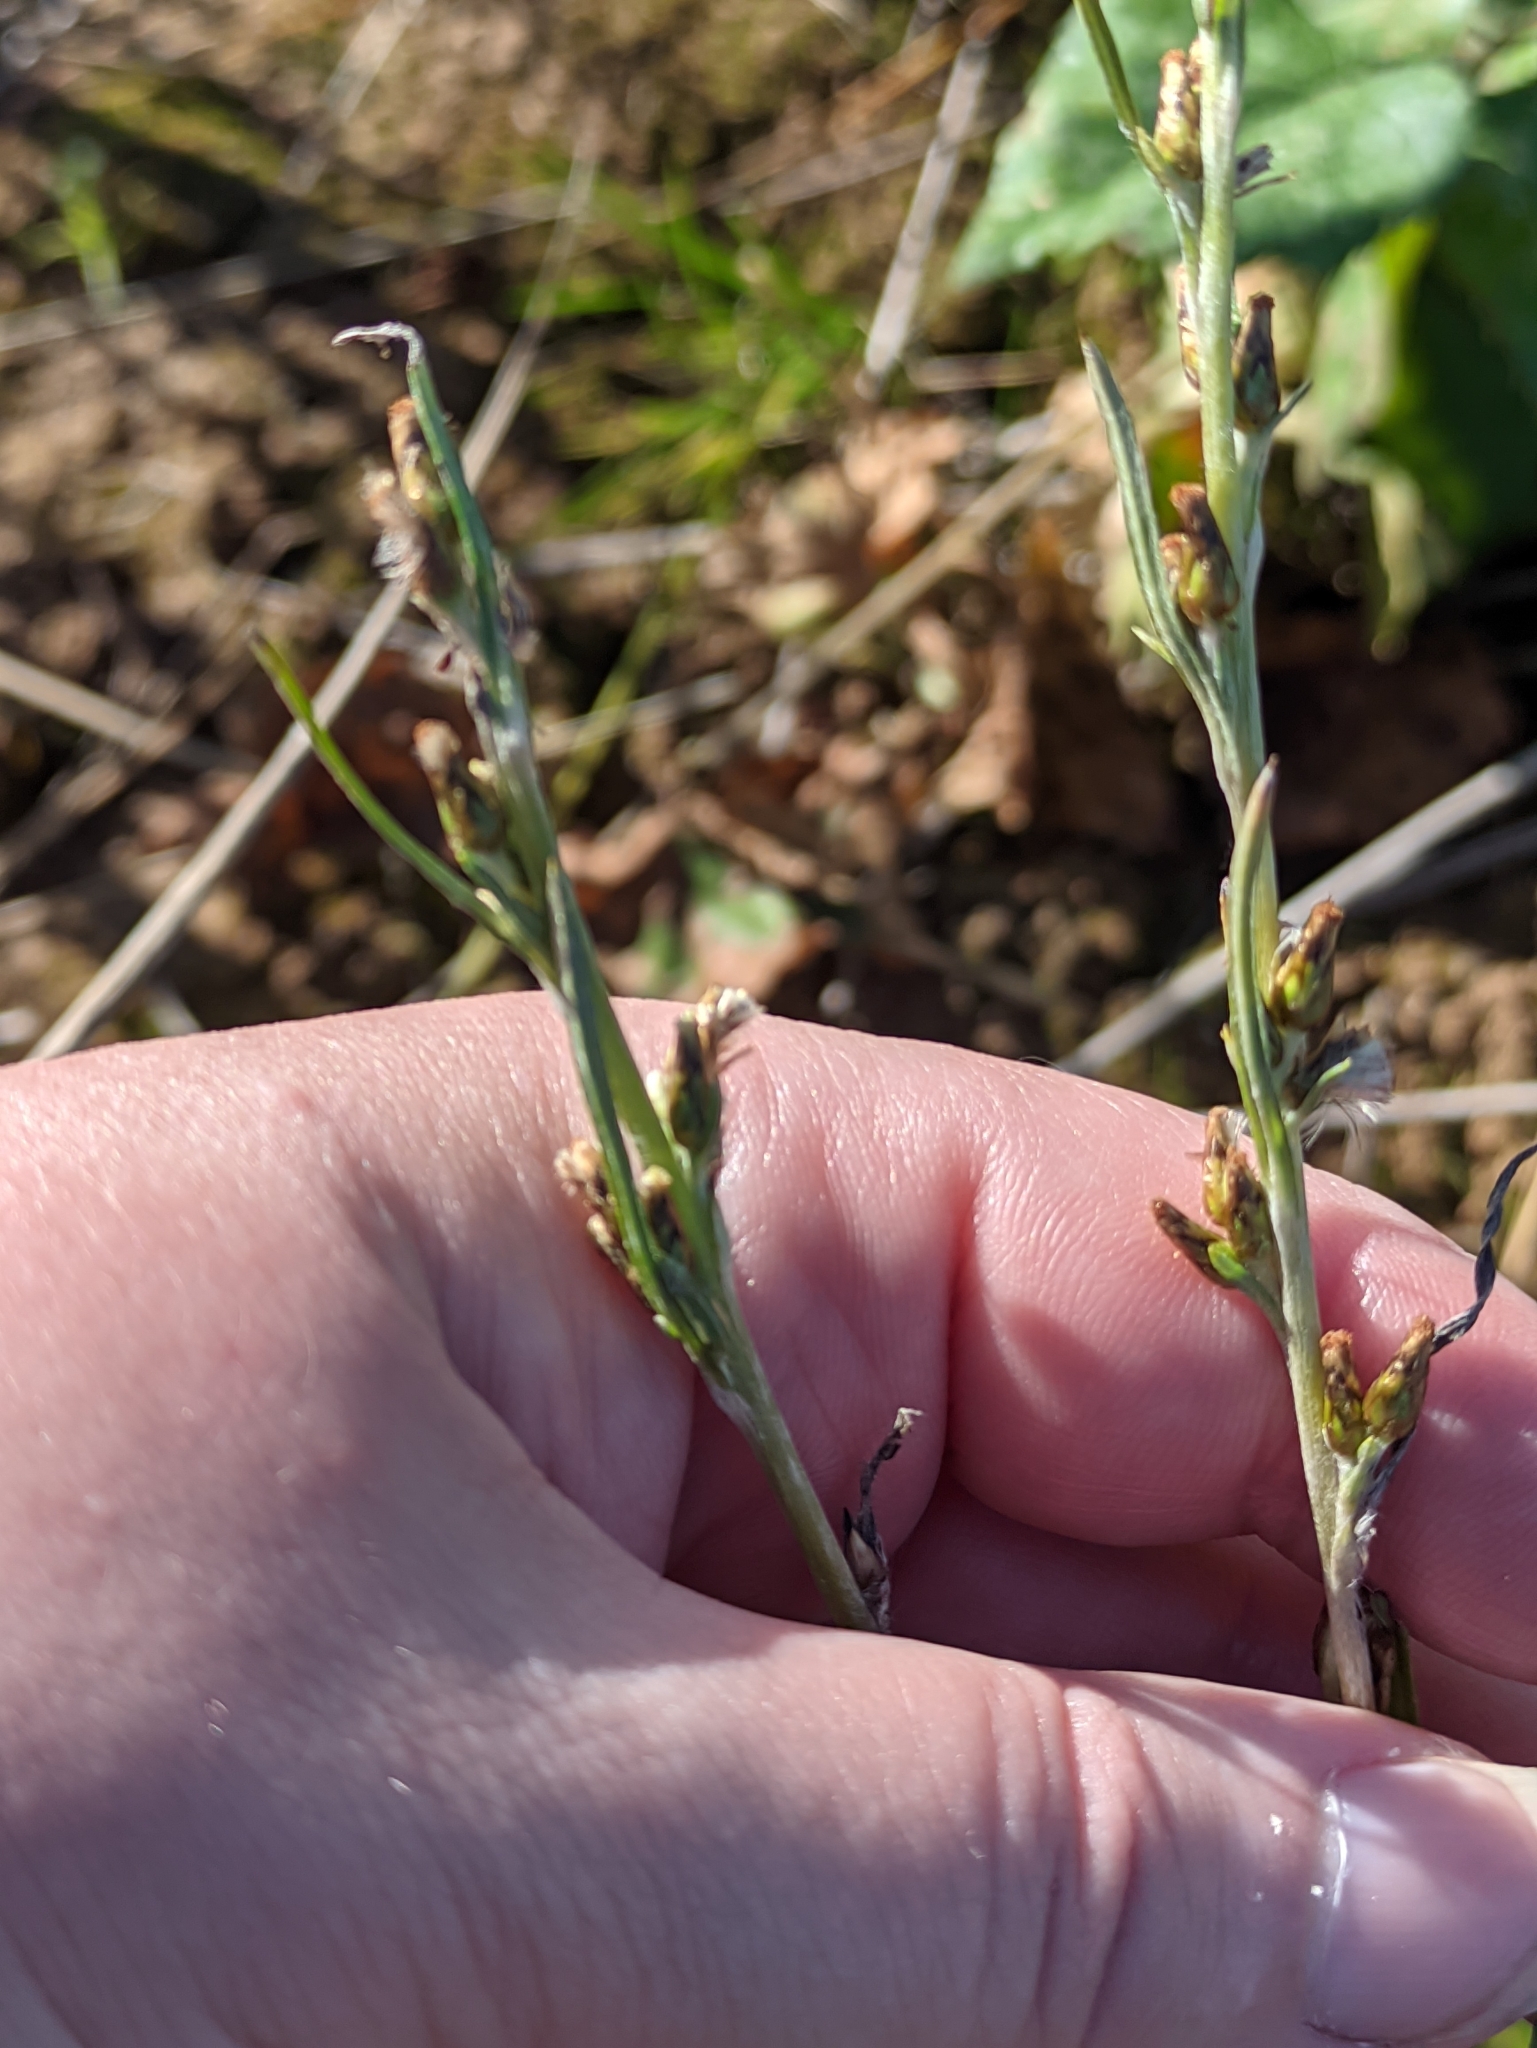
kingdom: Plantae
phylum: Tracheophyta
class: Magnoliopsida
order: Asterales
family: Asteraceae
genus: Omalotheca
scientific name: Omalotheca sylvatica
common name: Heath cudweed
